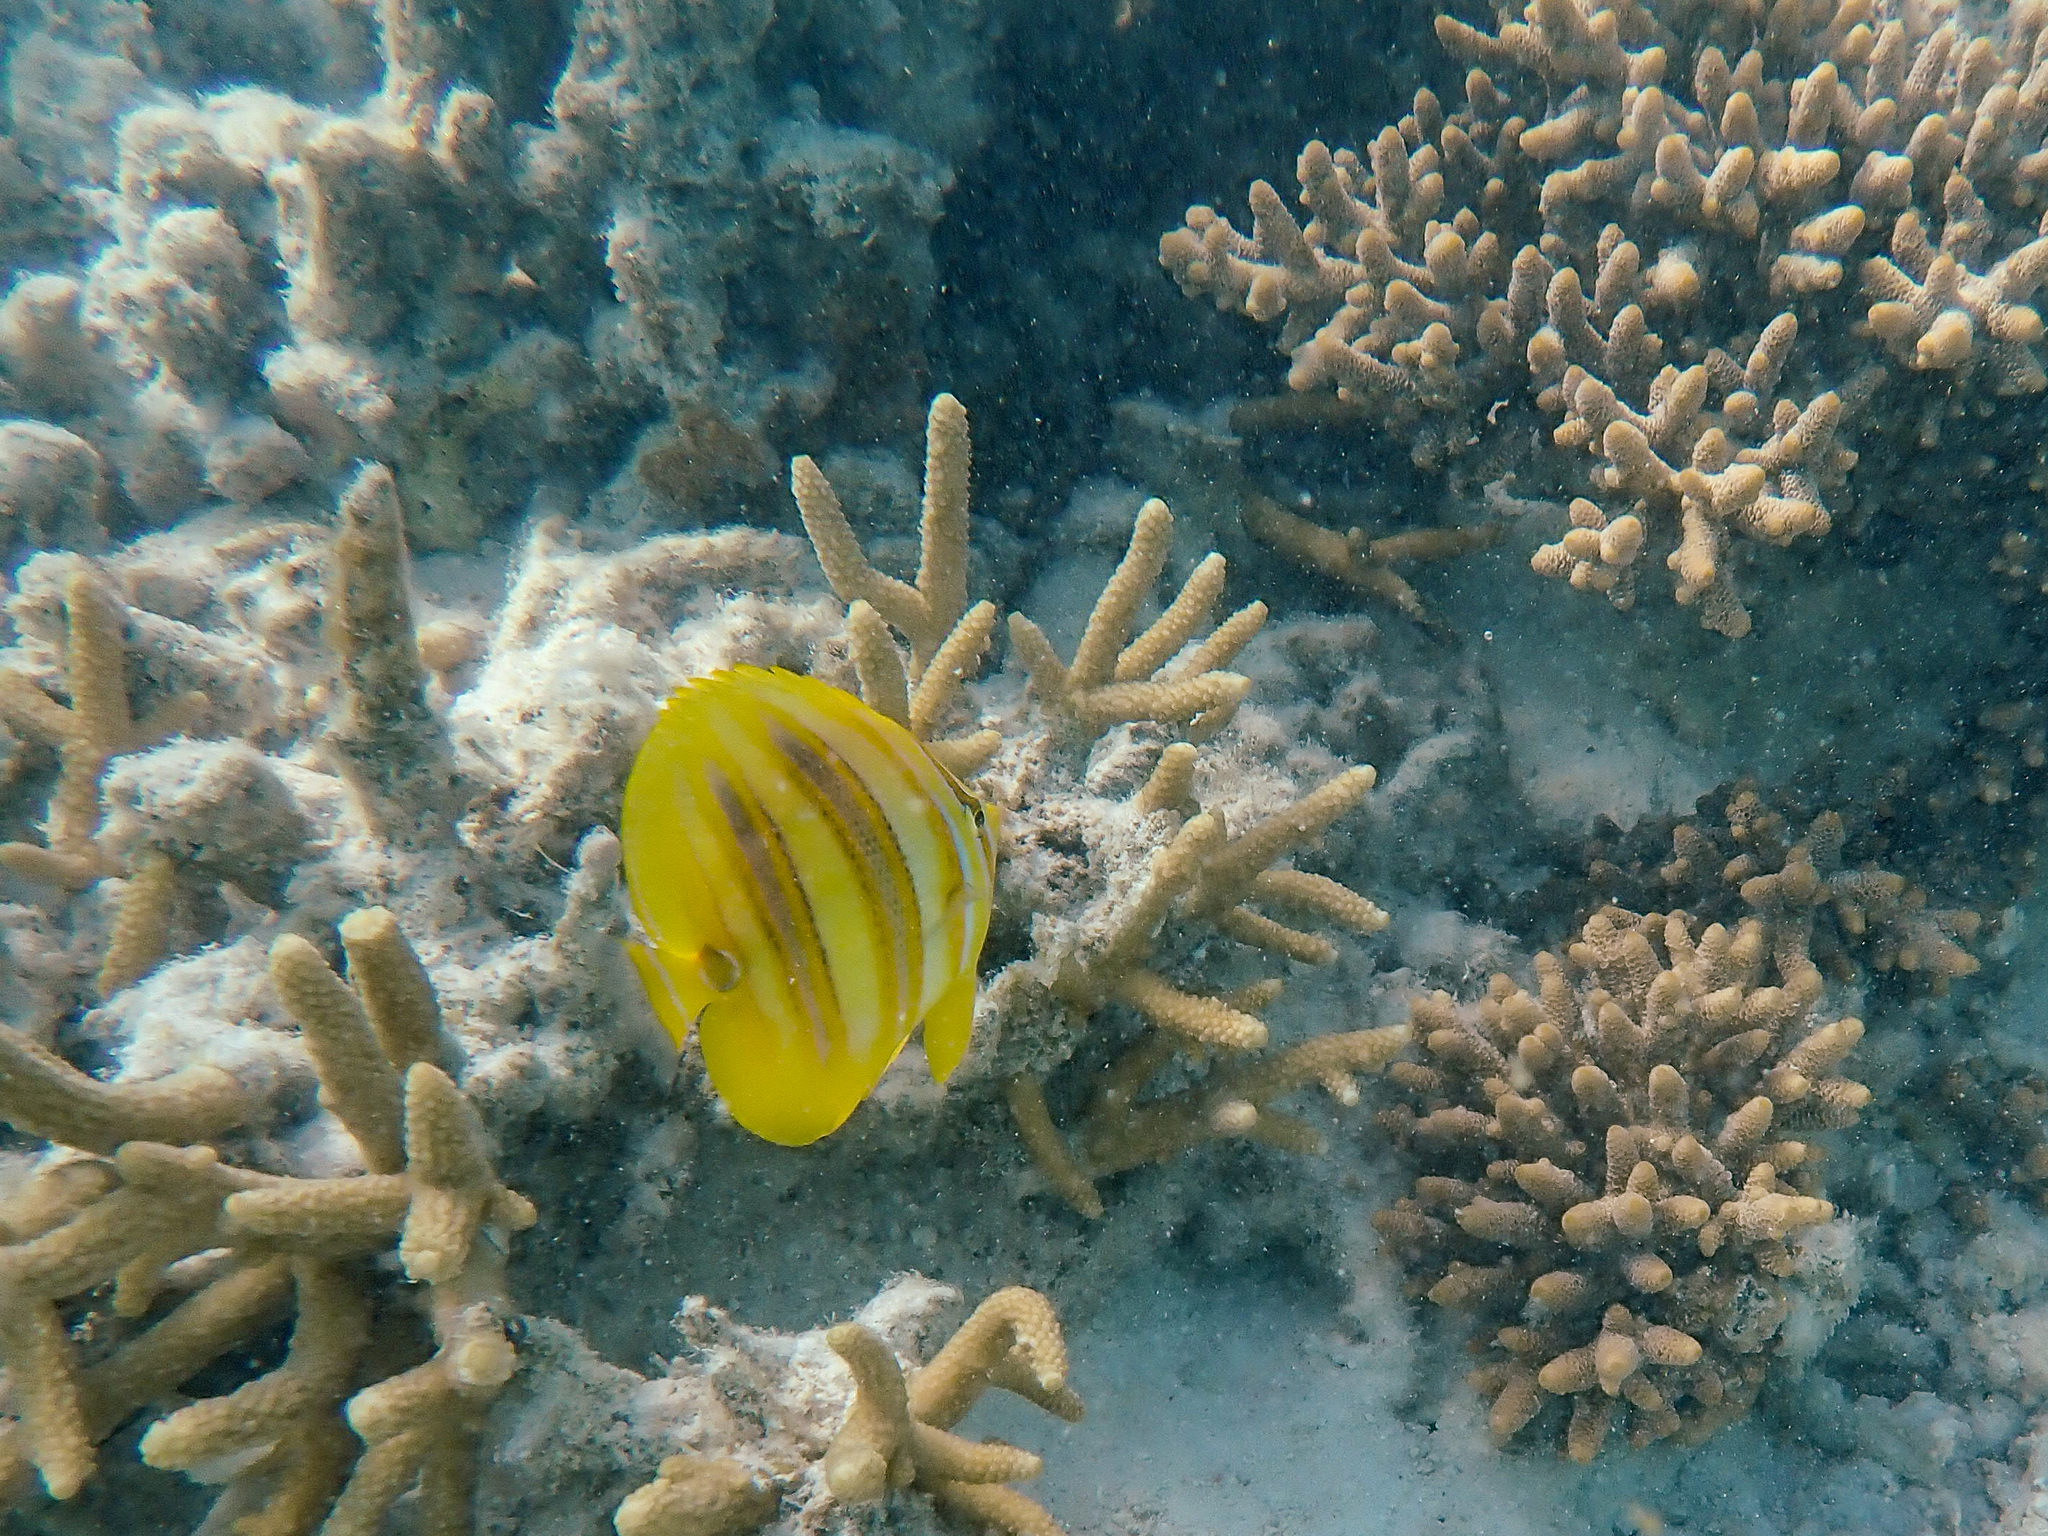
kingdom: Animalia
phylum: Chordata
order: Perciformes
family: Chaetodontidae
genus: Chaetodon
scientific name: Chaetodon rainfordi
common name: Rainford's butterflyfish
